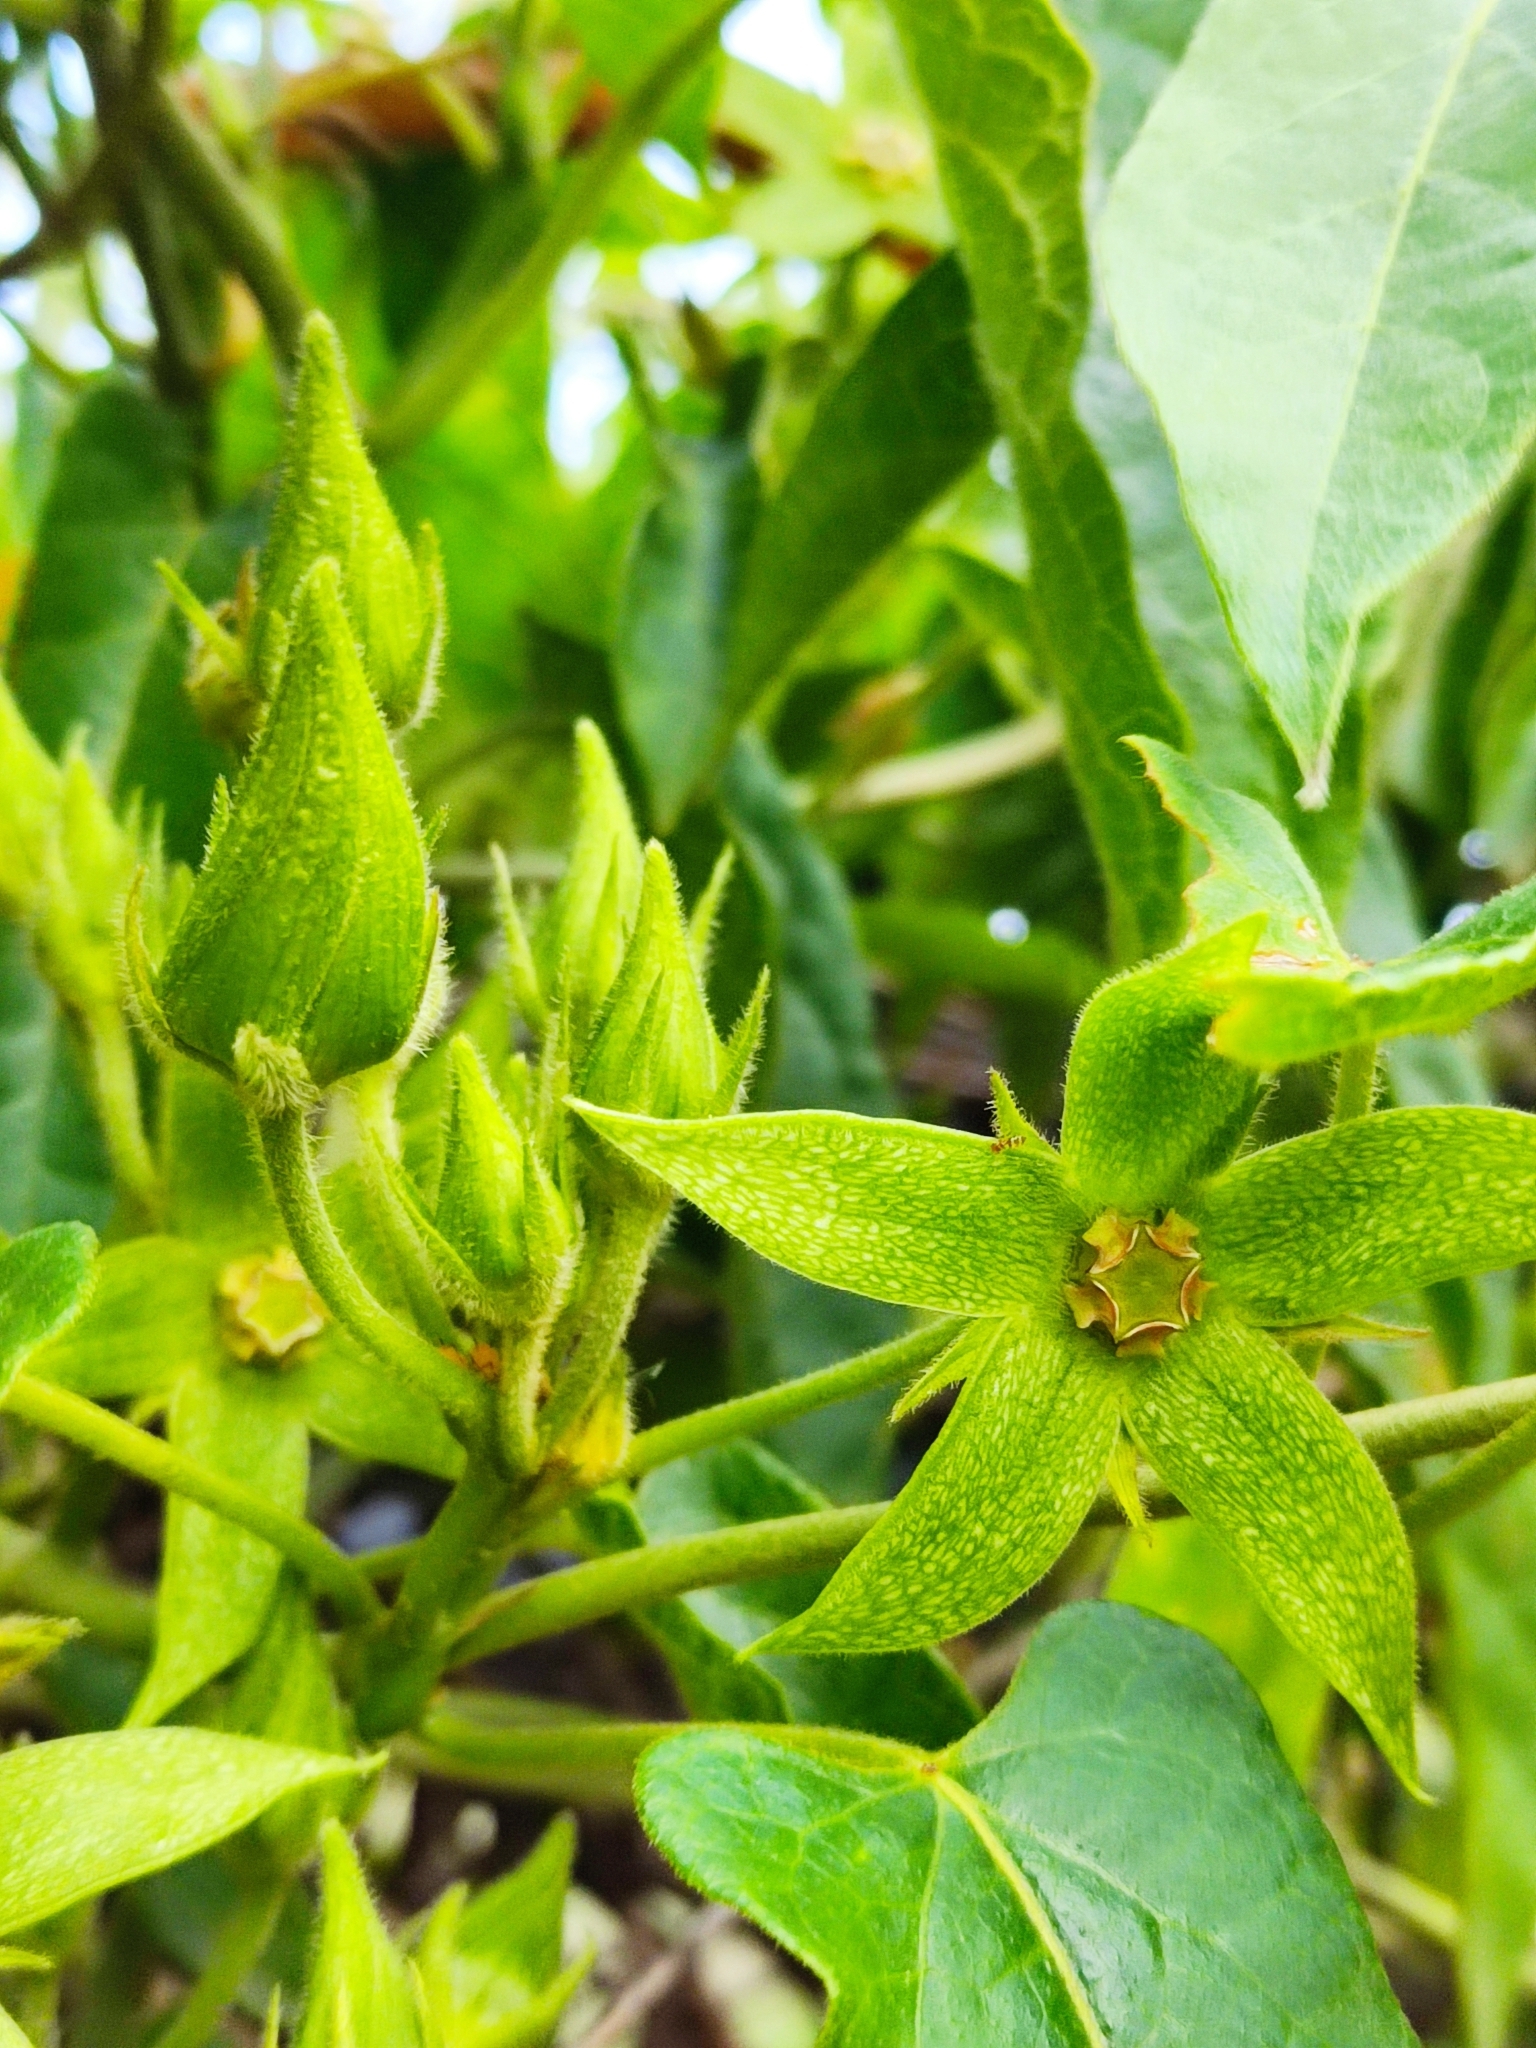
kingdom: Plantae
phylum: Tracheophyta
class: Magnoliopsida
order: Gentianales
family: Apocynaceae
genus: Gonolobus
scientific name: Gonolobus grandiflorus
